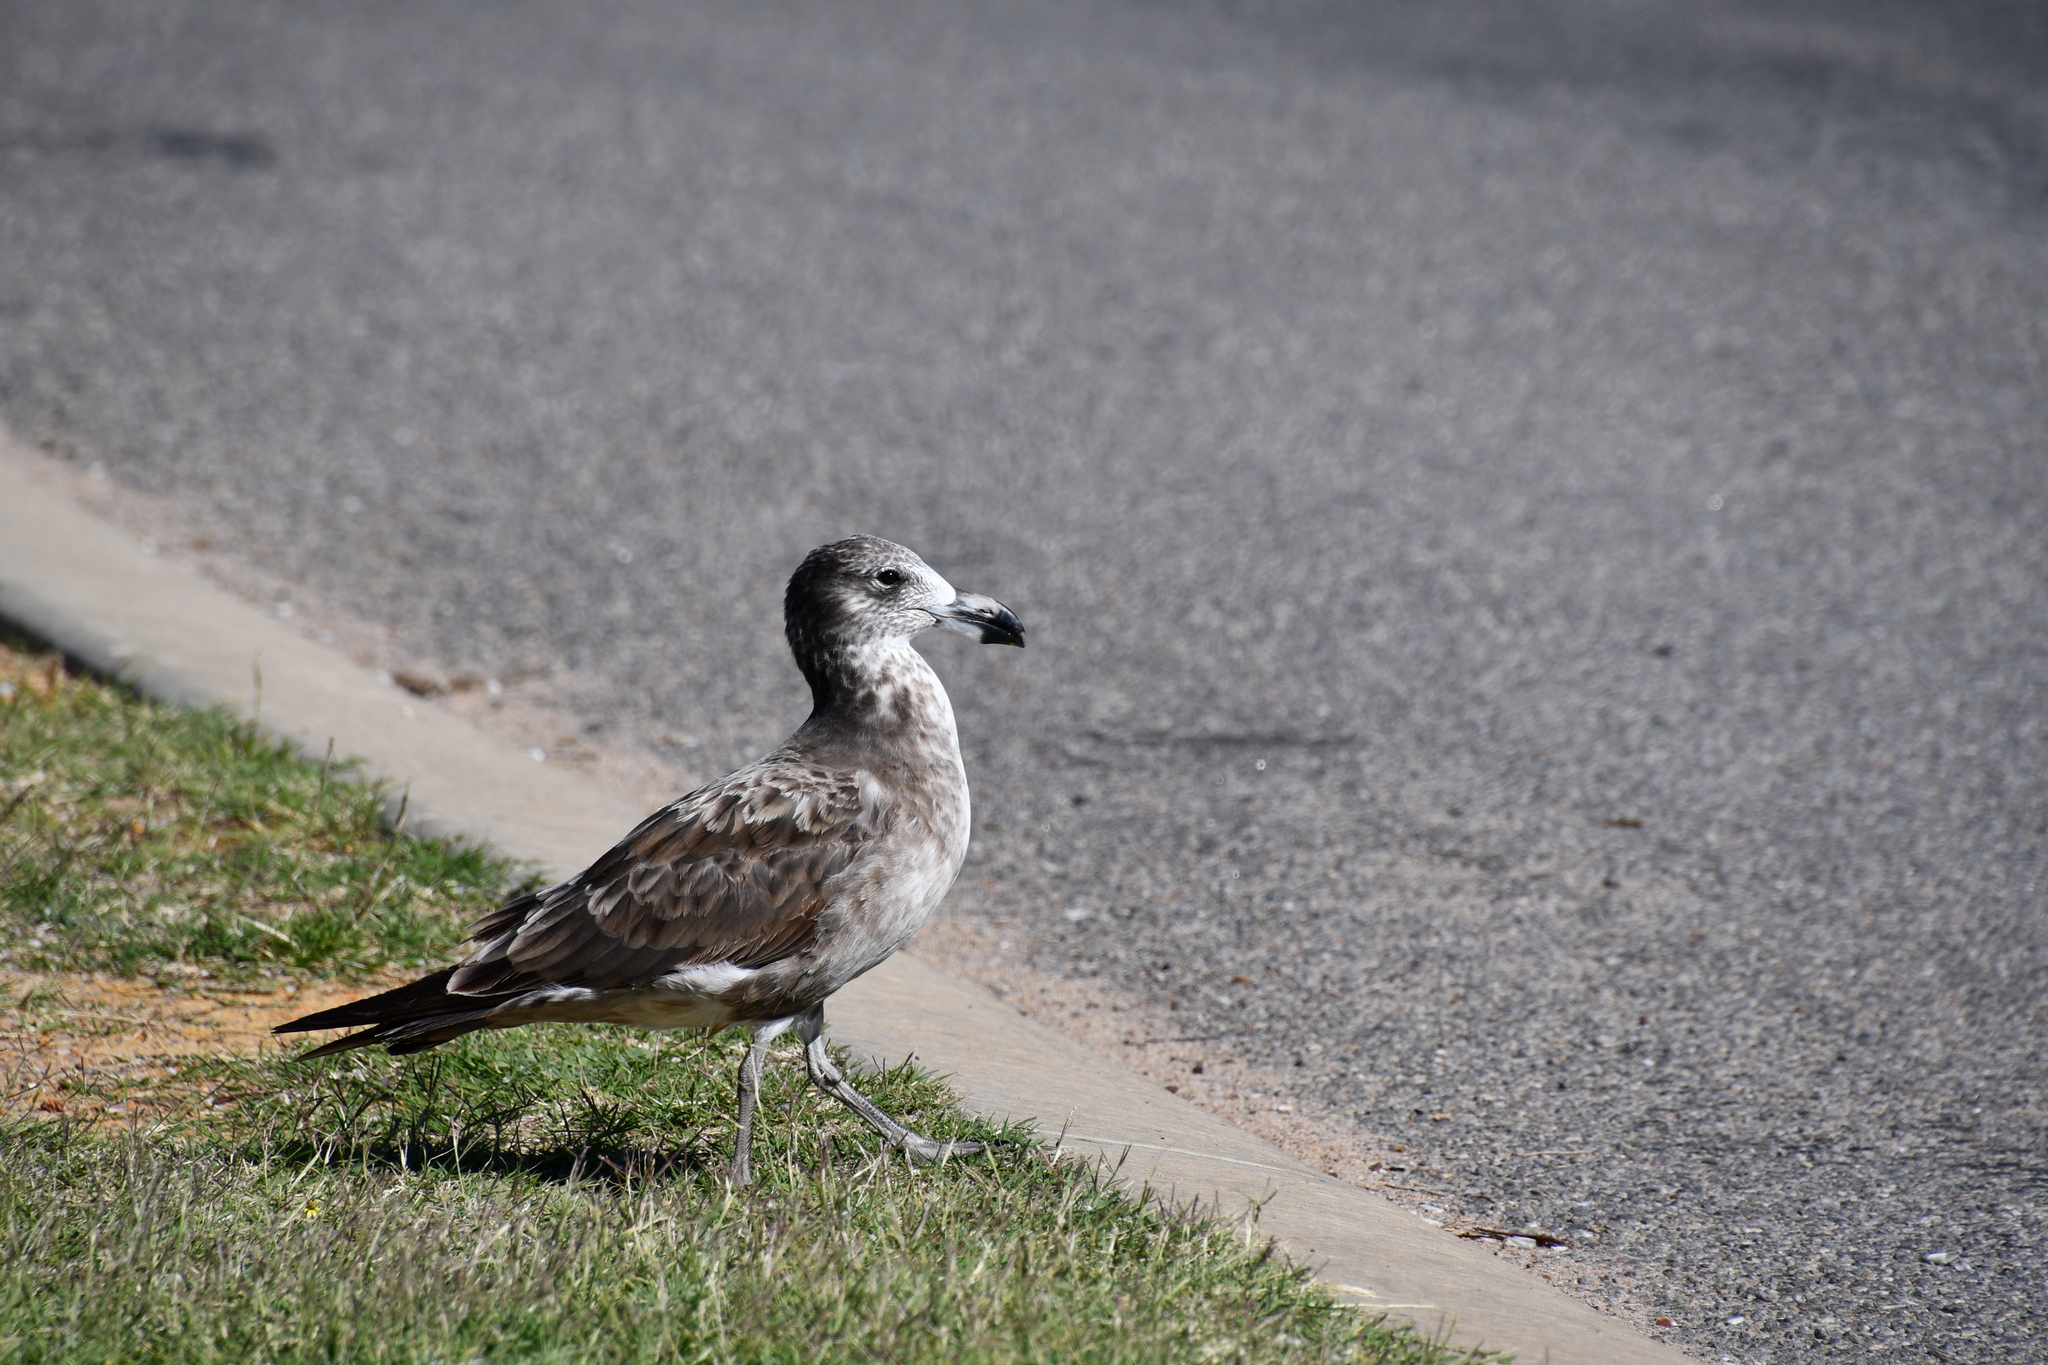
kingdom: Animalia
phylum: Chordata
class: Aves
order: Charadriiformes
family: Laridae
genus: Larus
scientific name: Larus pacificus
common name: Pacific gull
